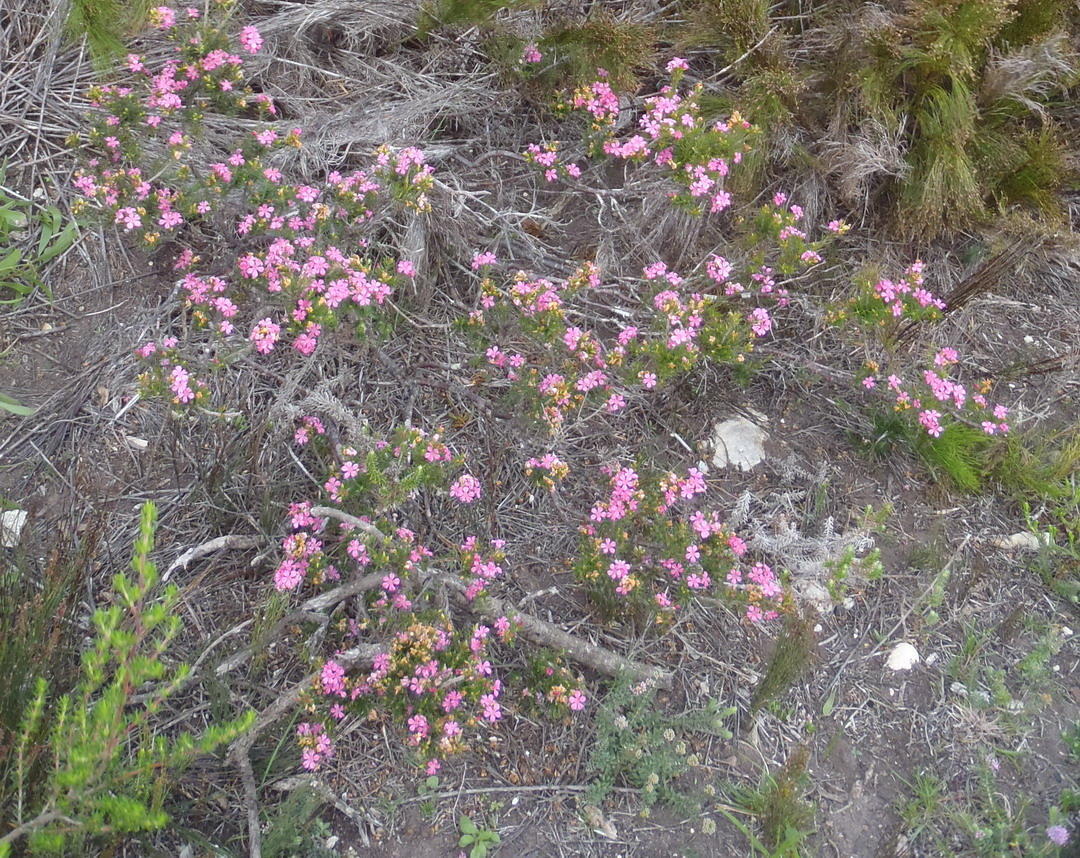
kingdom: Plantae
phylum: Tracheophyta
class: Magnoliopsida
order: Sapindales
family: Rutaceae
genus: Acmadenia
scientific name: Acmadenia obtusata
